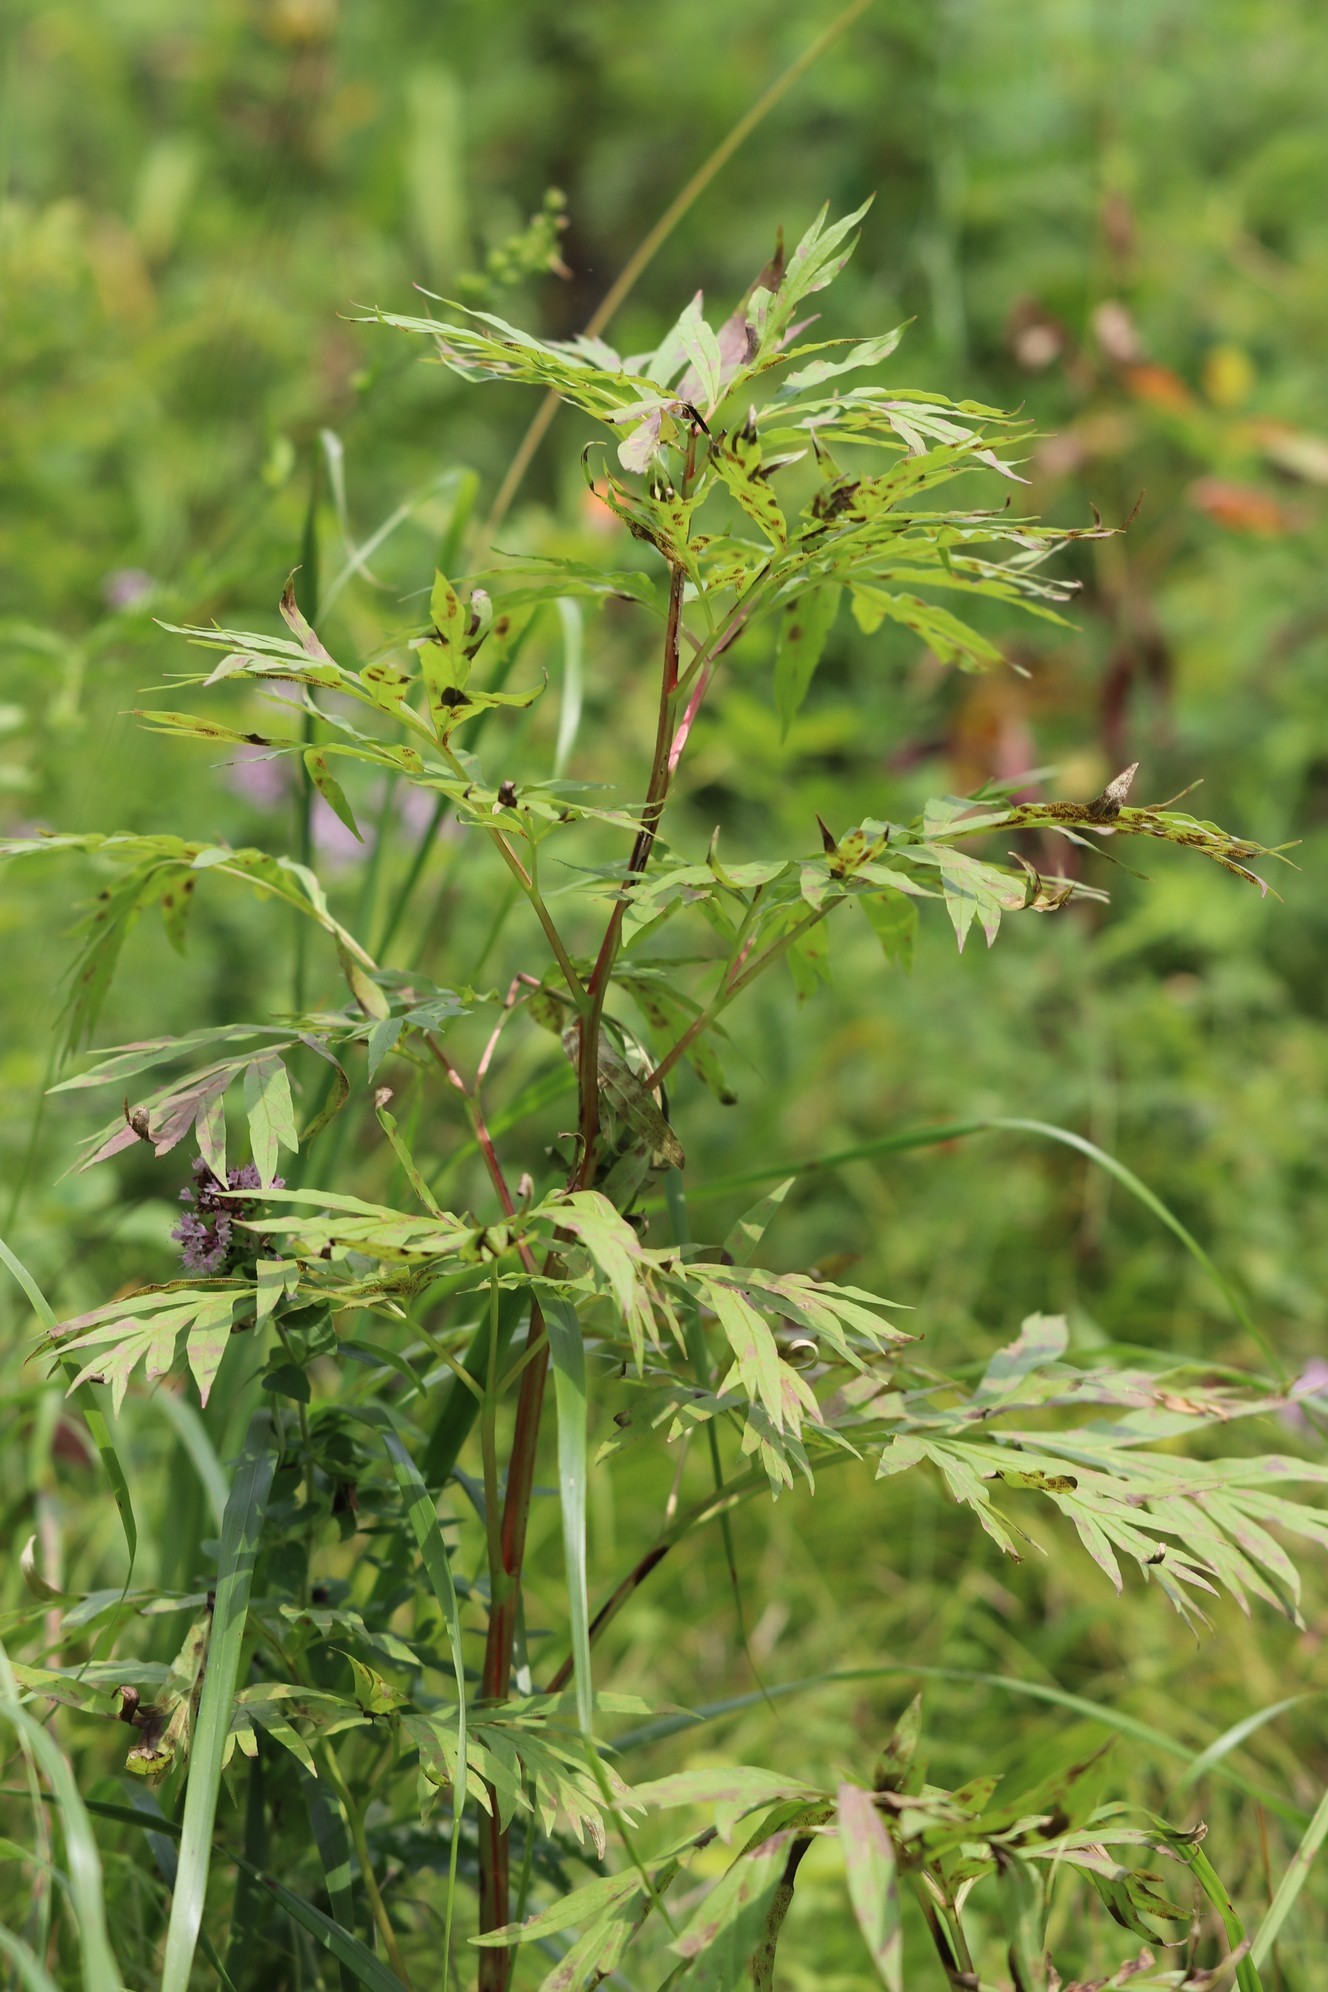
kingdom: Plantae
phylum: Tracheophyta
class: Magnoliopsida
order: Saxifragales
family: Paeoniaceae
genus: Paeonia
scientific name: Paeonia anomala
